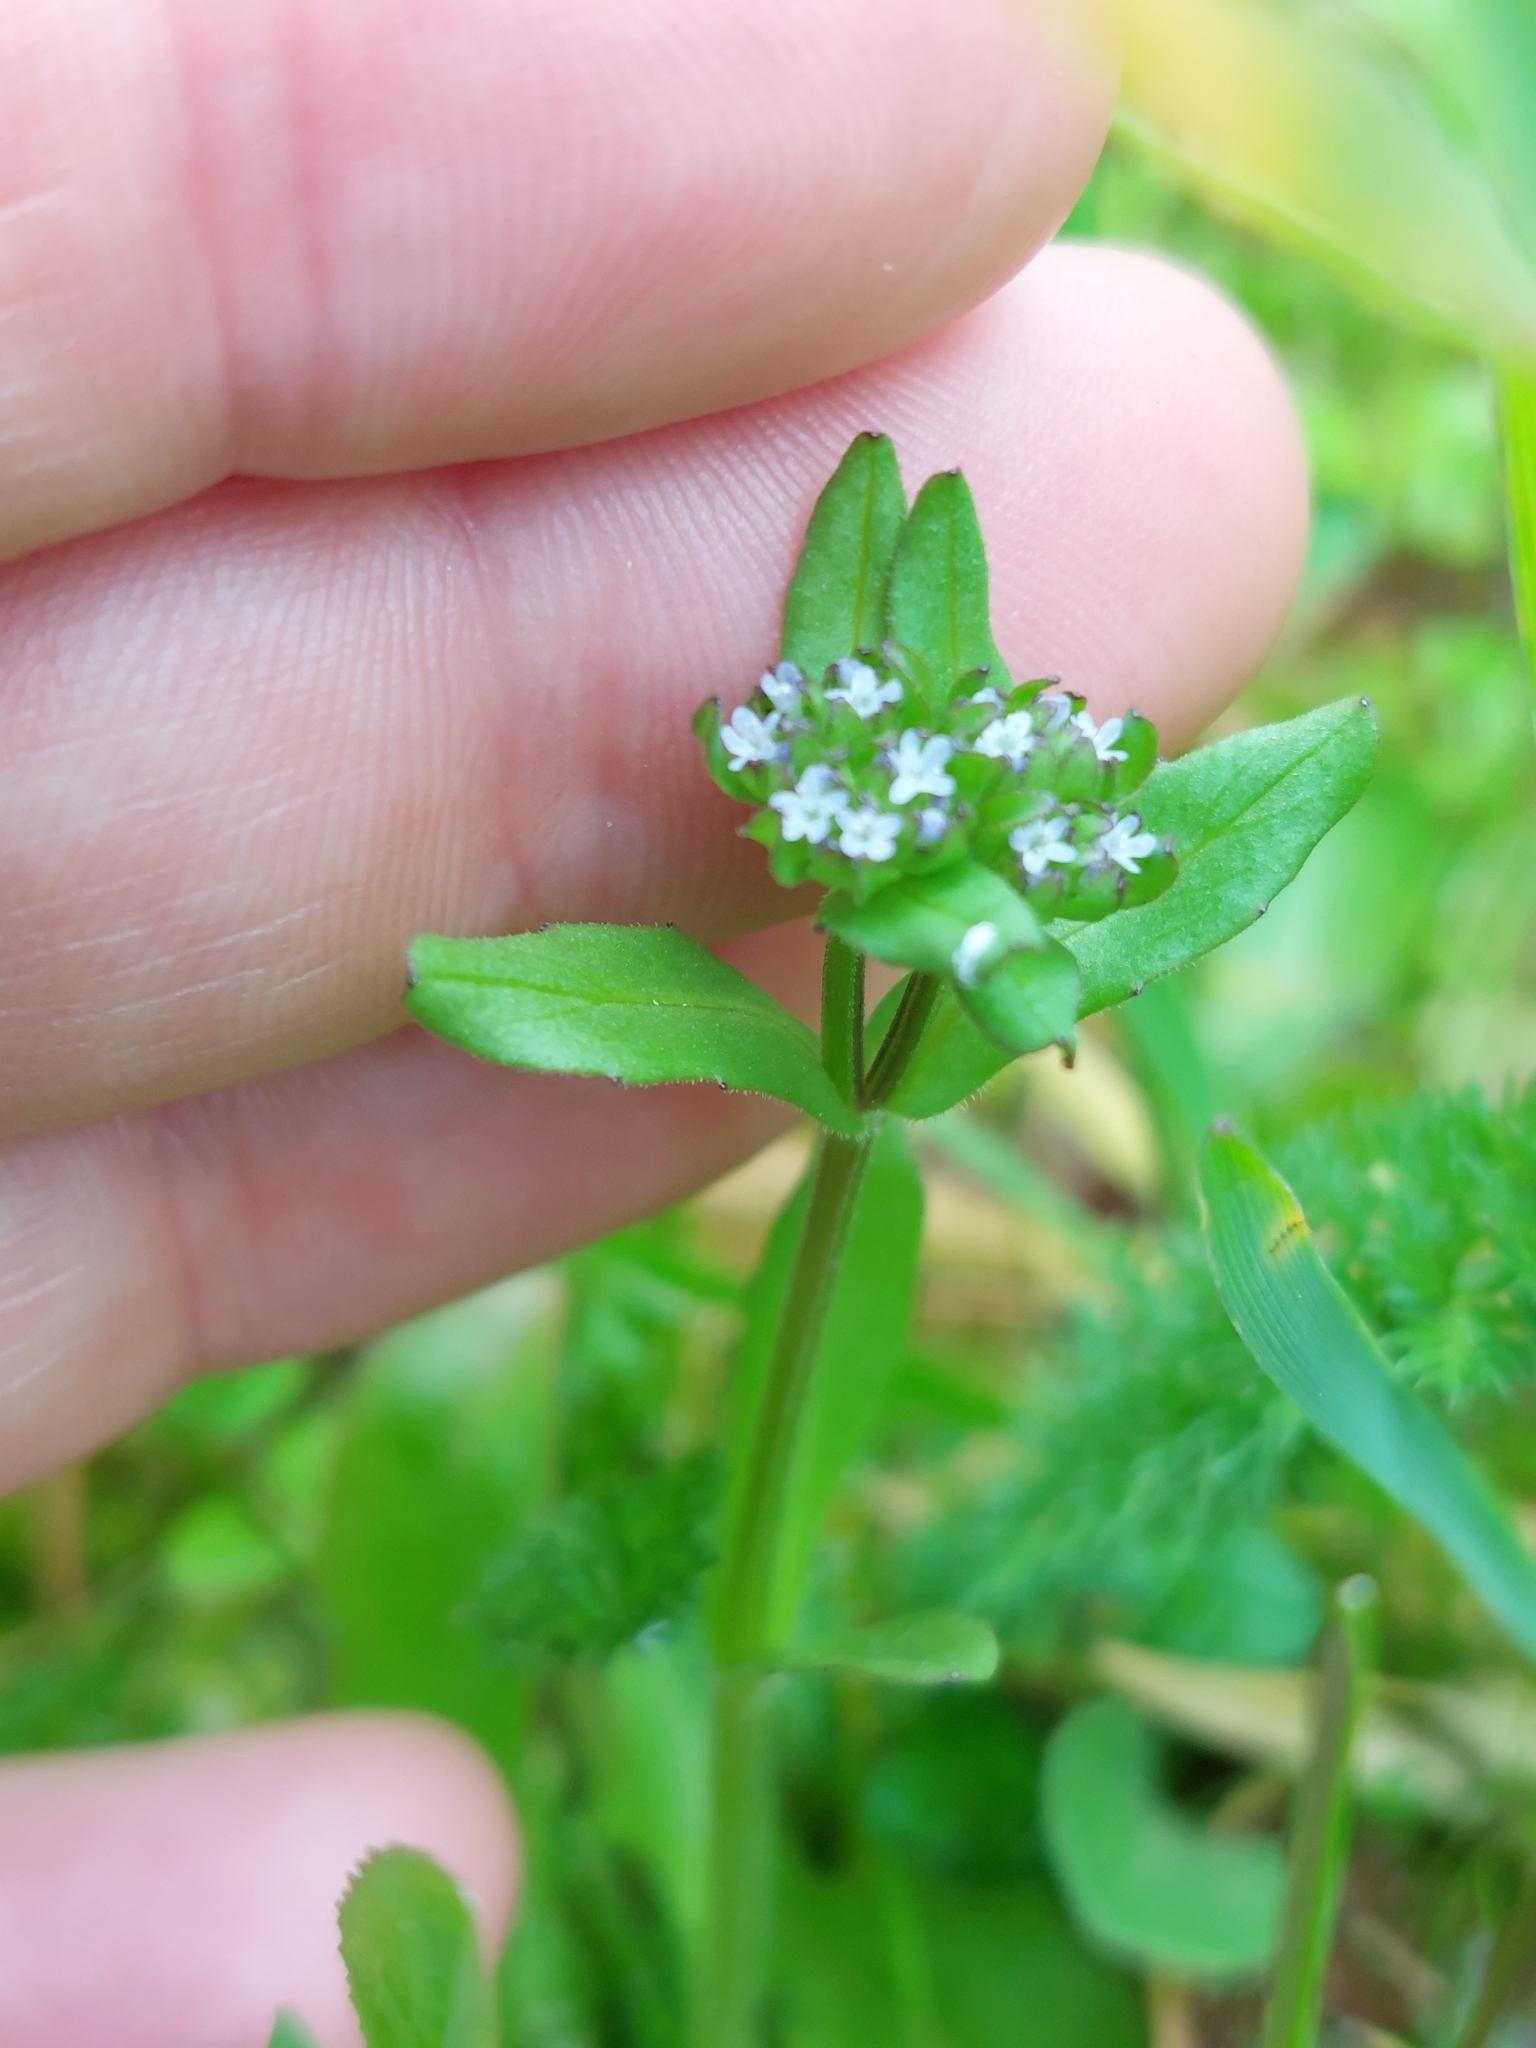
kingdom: Plantae
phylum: Tracheophyta
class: Magnoliopsida
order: Dipsacales
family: Caprifoliaceae
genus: Valerianella
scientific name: Valerianella locusta
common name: Common cornsalad
